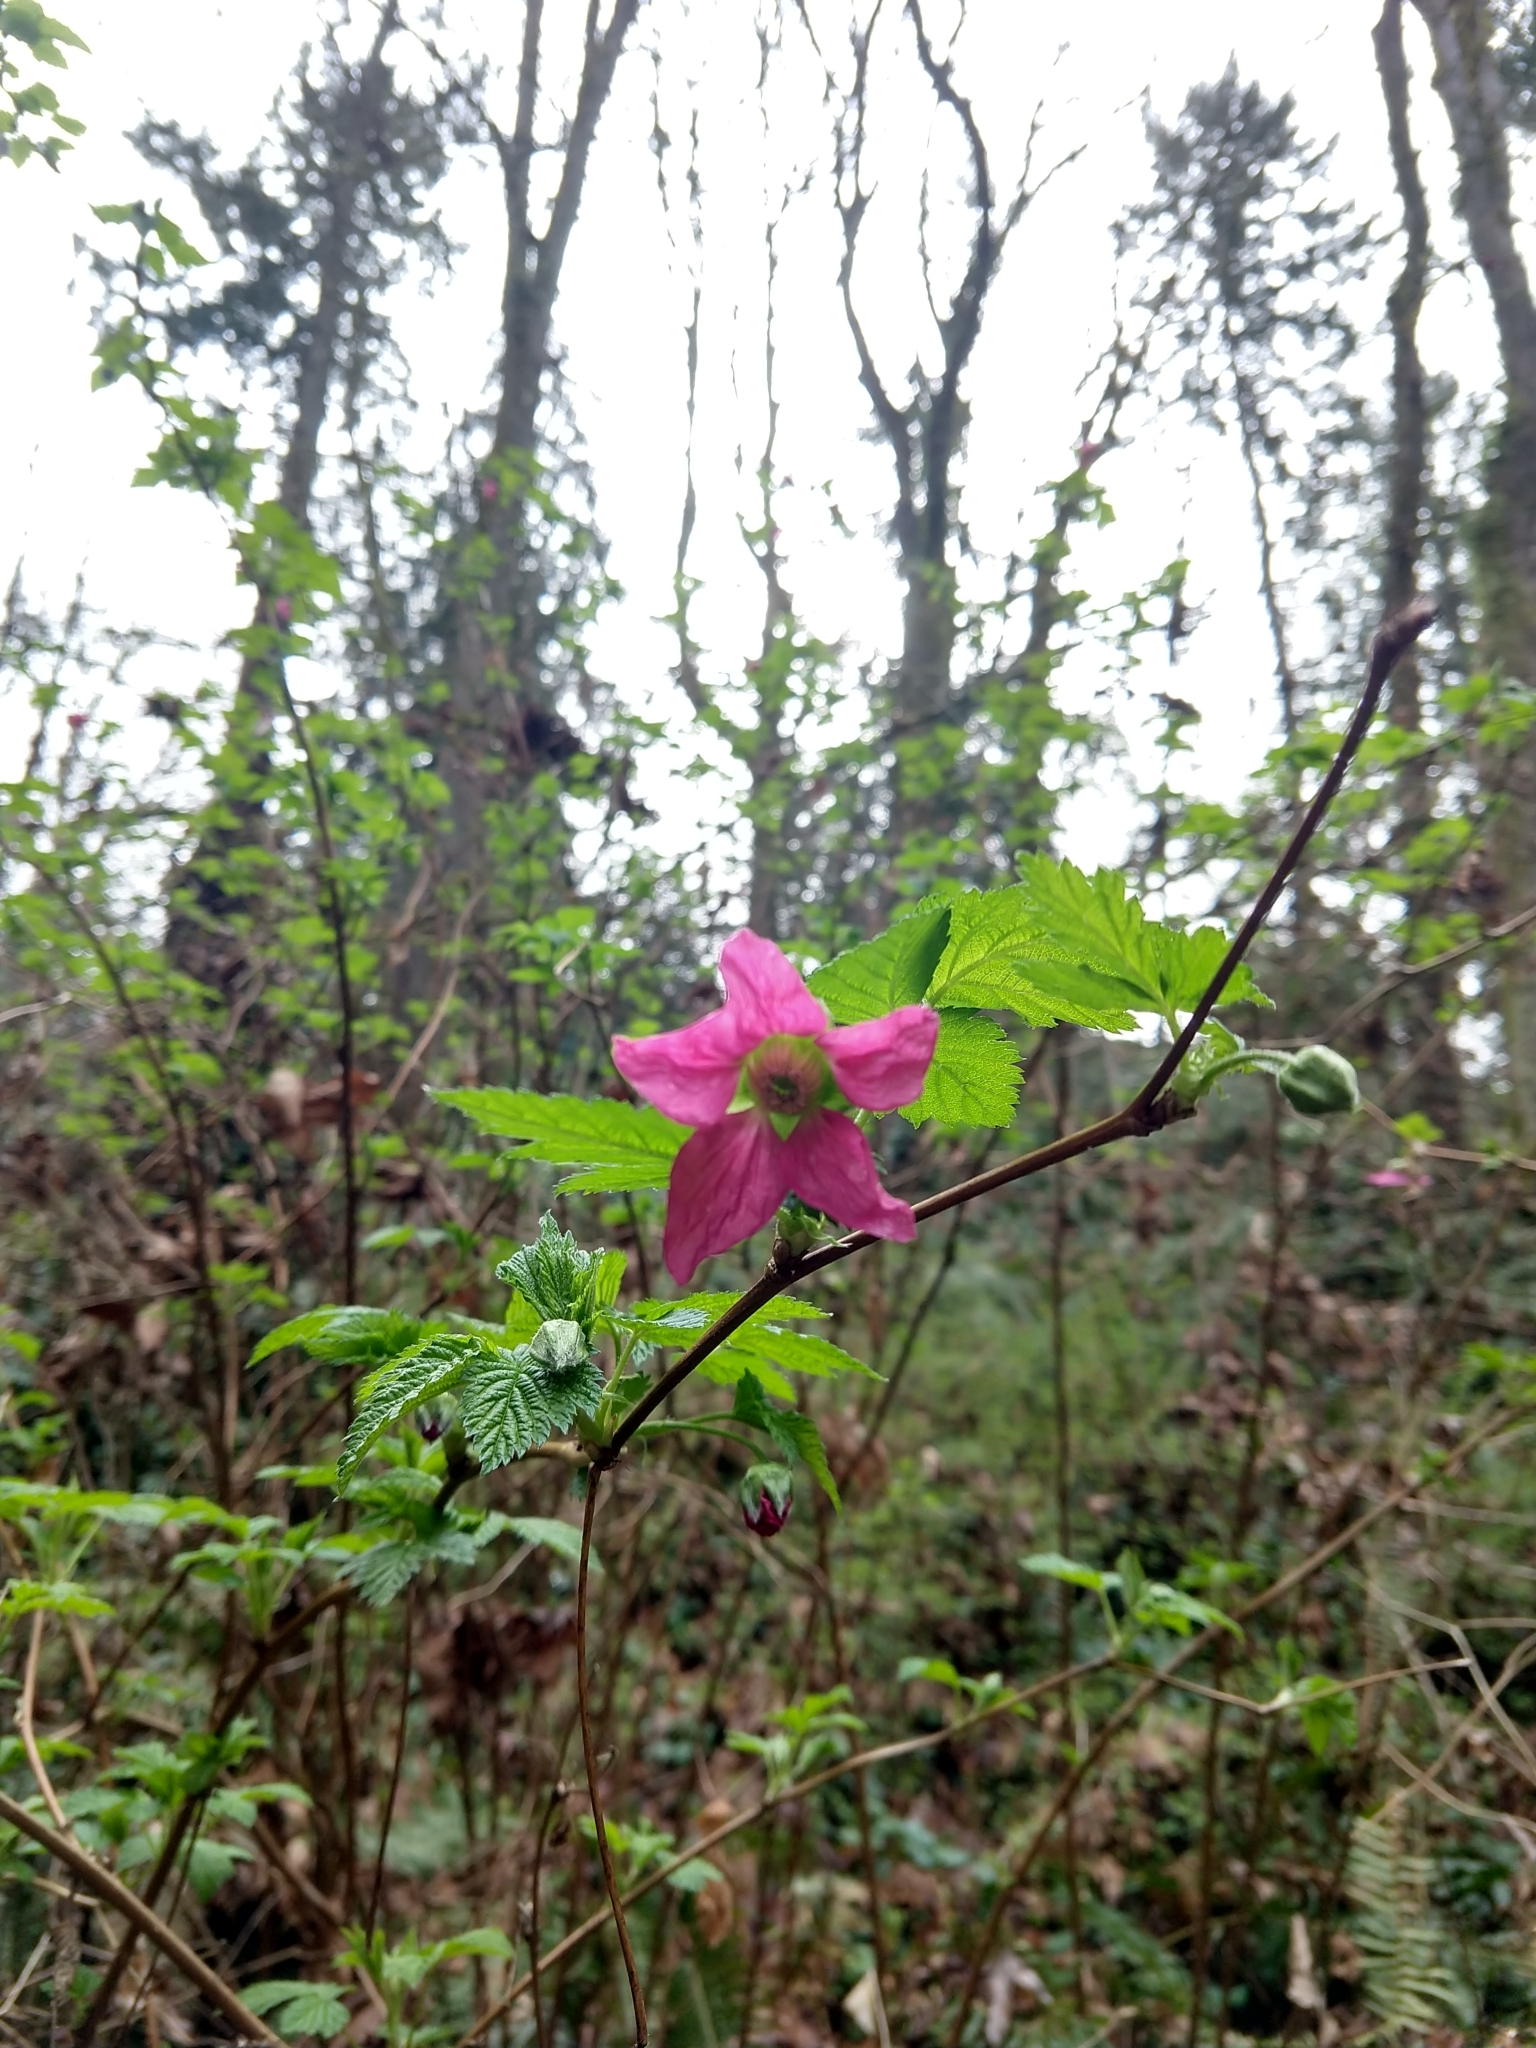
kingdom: Plantae
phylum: Tracheophyta
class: Magnoliopsida
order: Rosales
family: Rosaceae
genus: Rubus
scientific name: Rubus spectabilis
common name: Salmonberry
